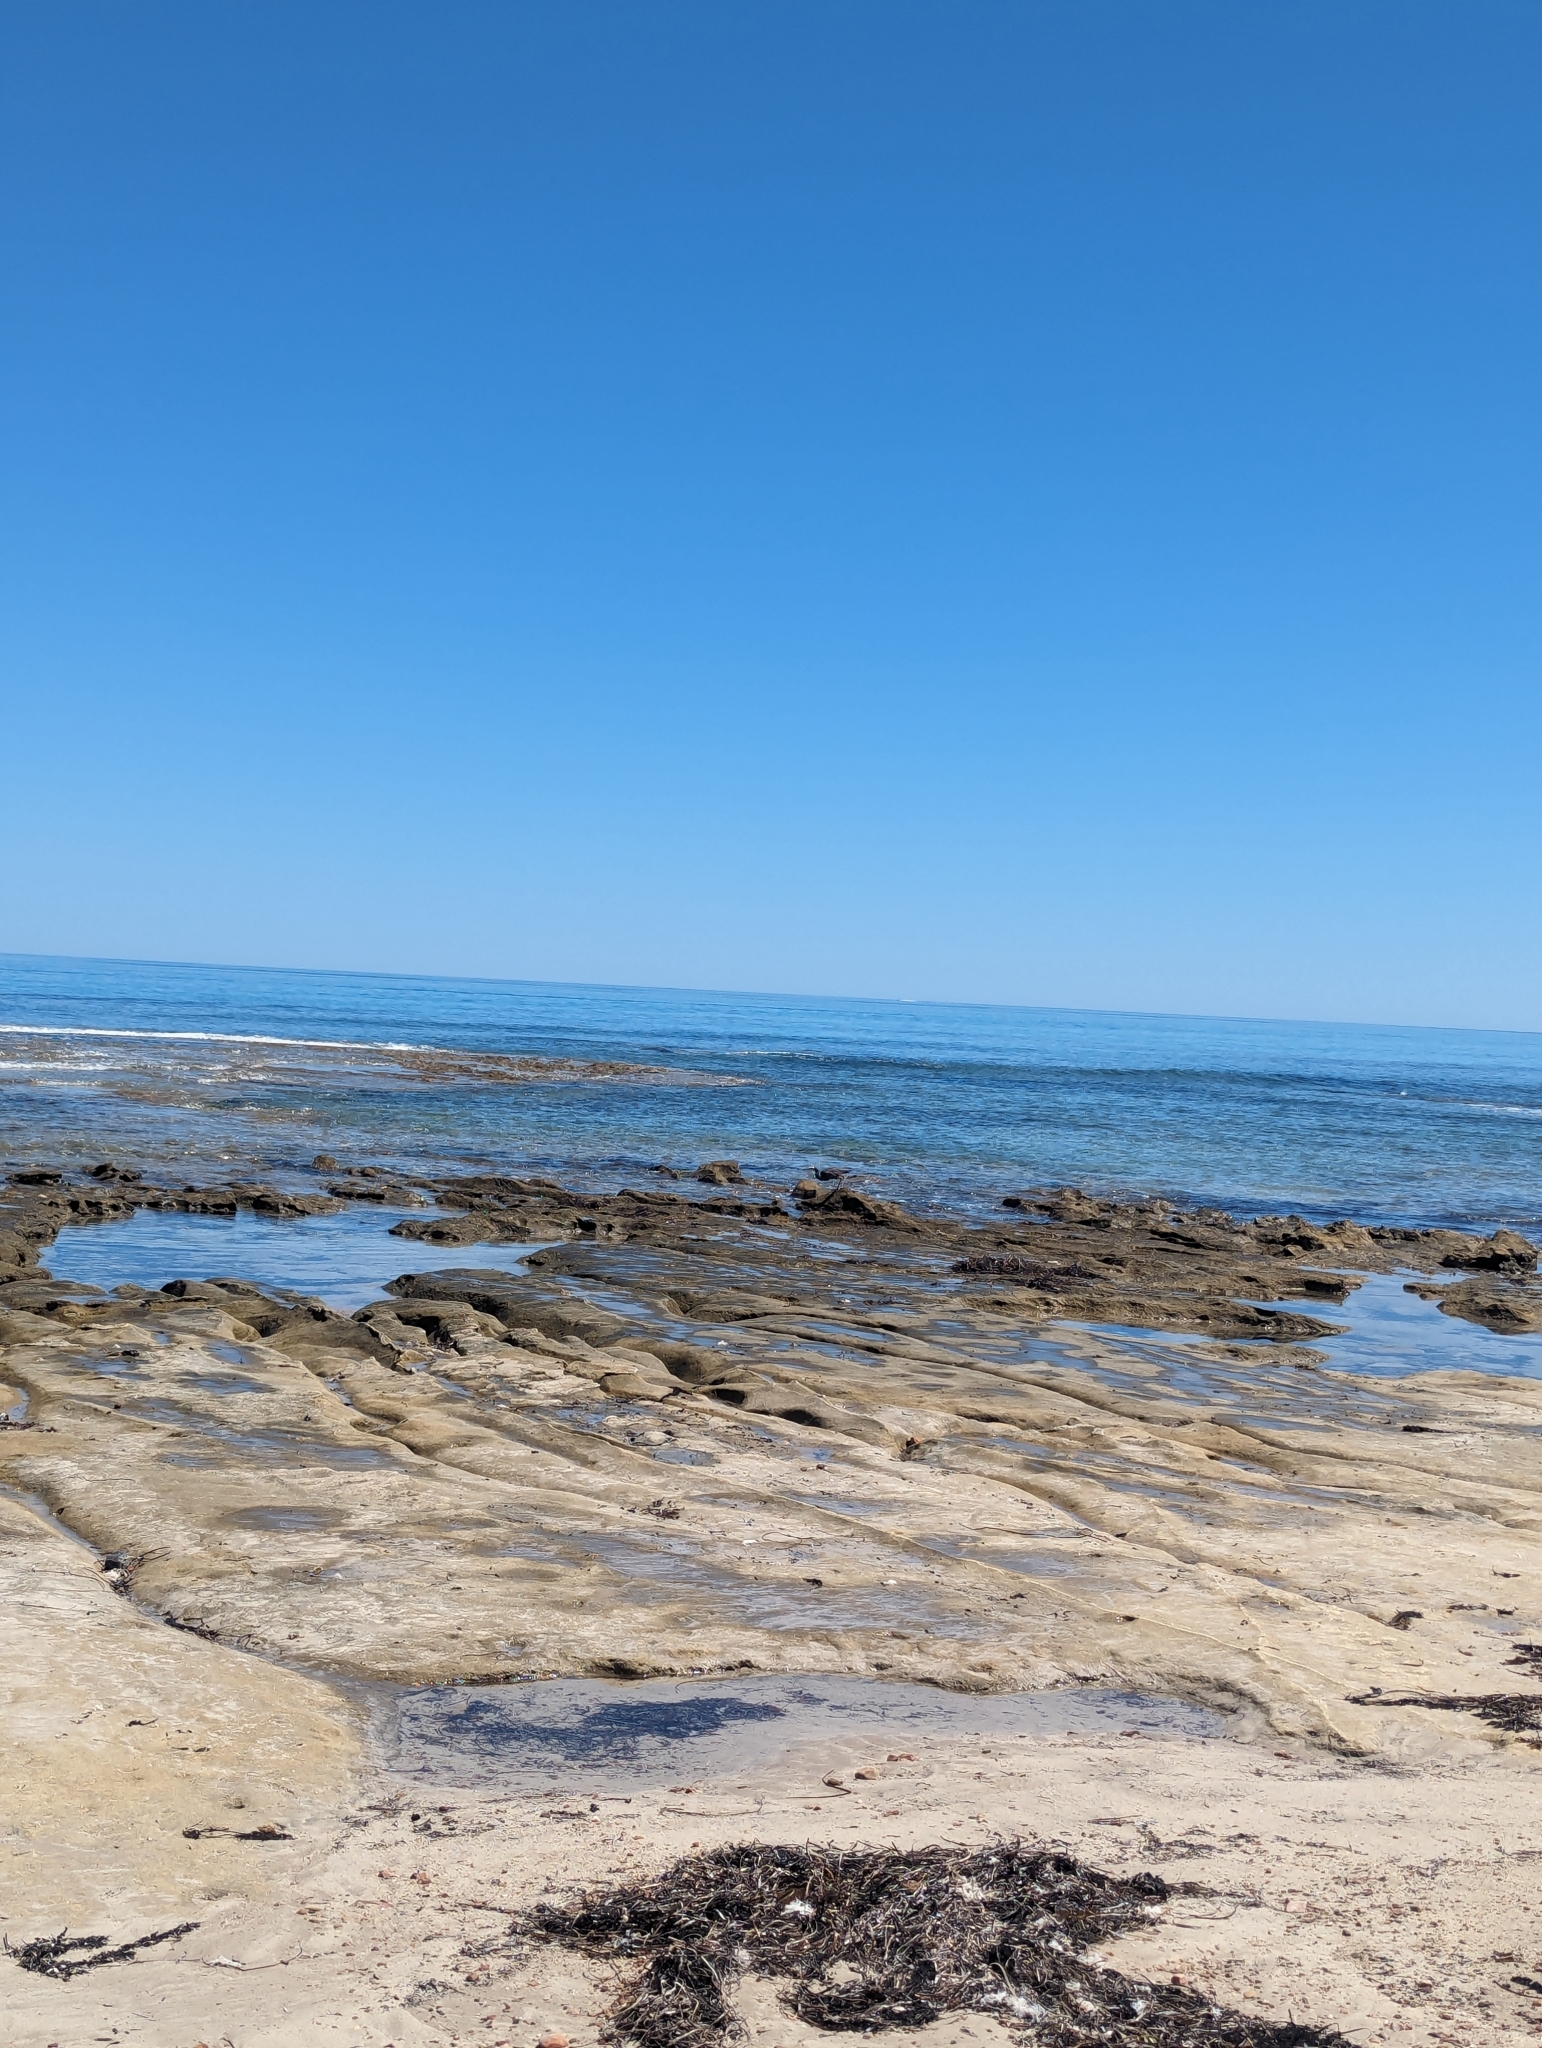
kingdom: Animalia
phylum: Chordata
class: Aves
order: Pelecaniformes
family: Ardeidae
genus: Egretta
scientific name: Egretta novaehollandiae
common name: White-faced heron
